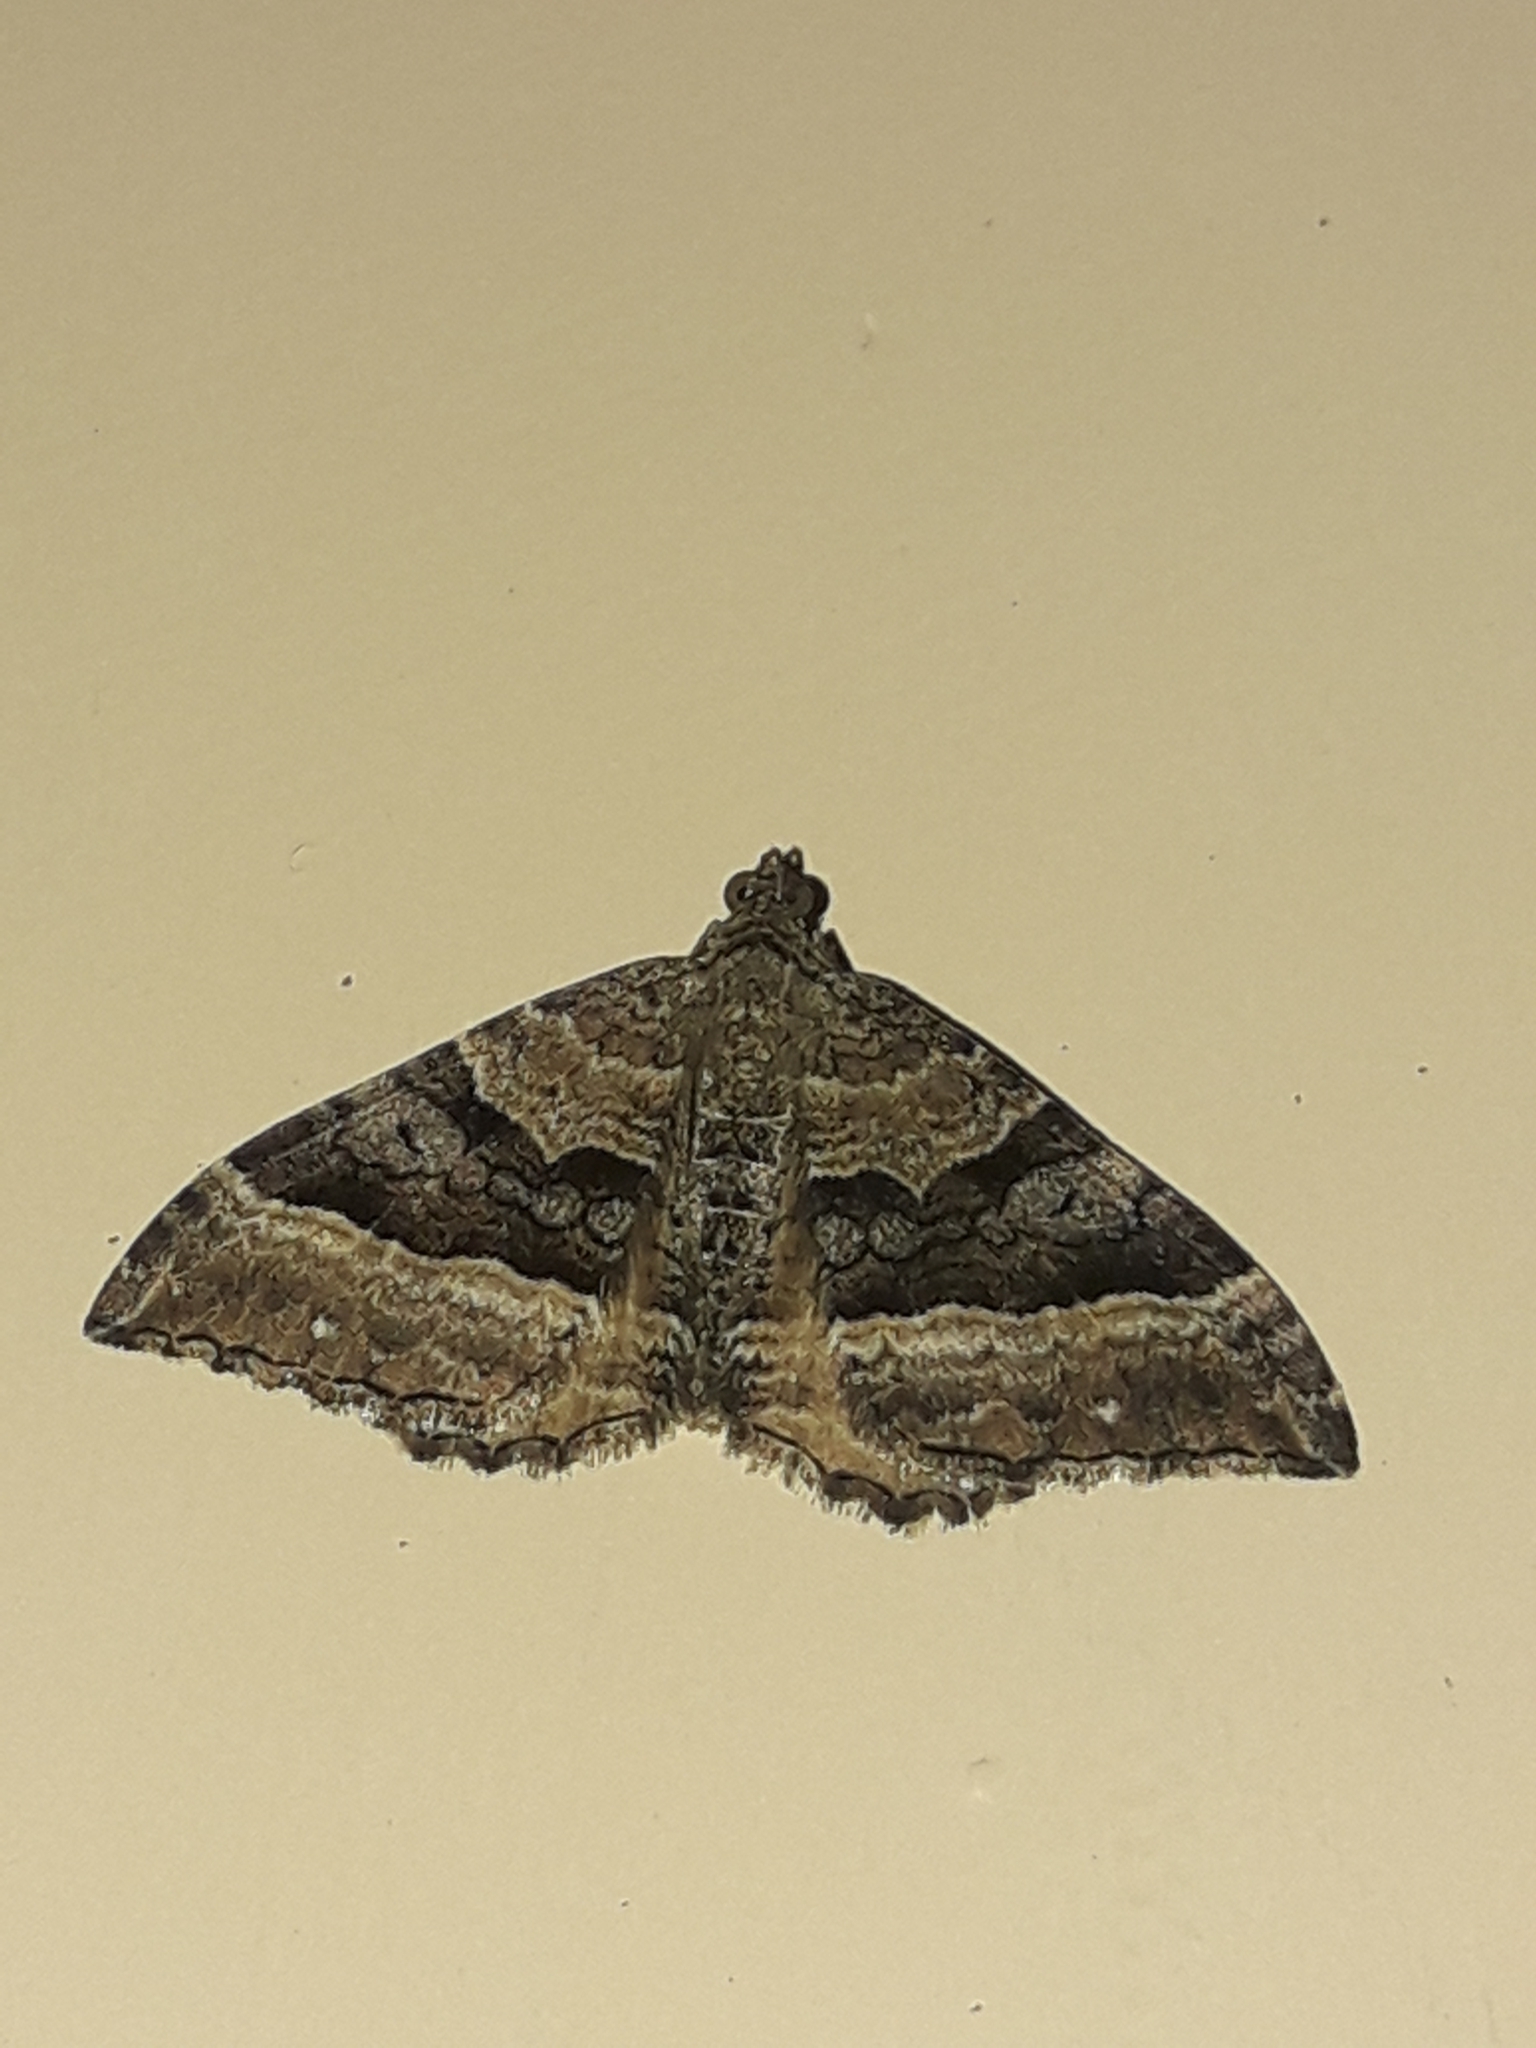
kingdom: Animalia
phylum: Arthropoda
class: Insecta
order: Lepidoptera
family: Geometridae
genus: Hydriomena
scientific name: Hydriomena deltoidata
